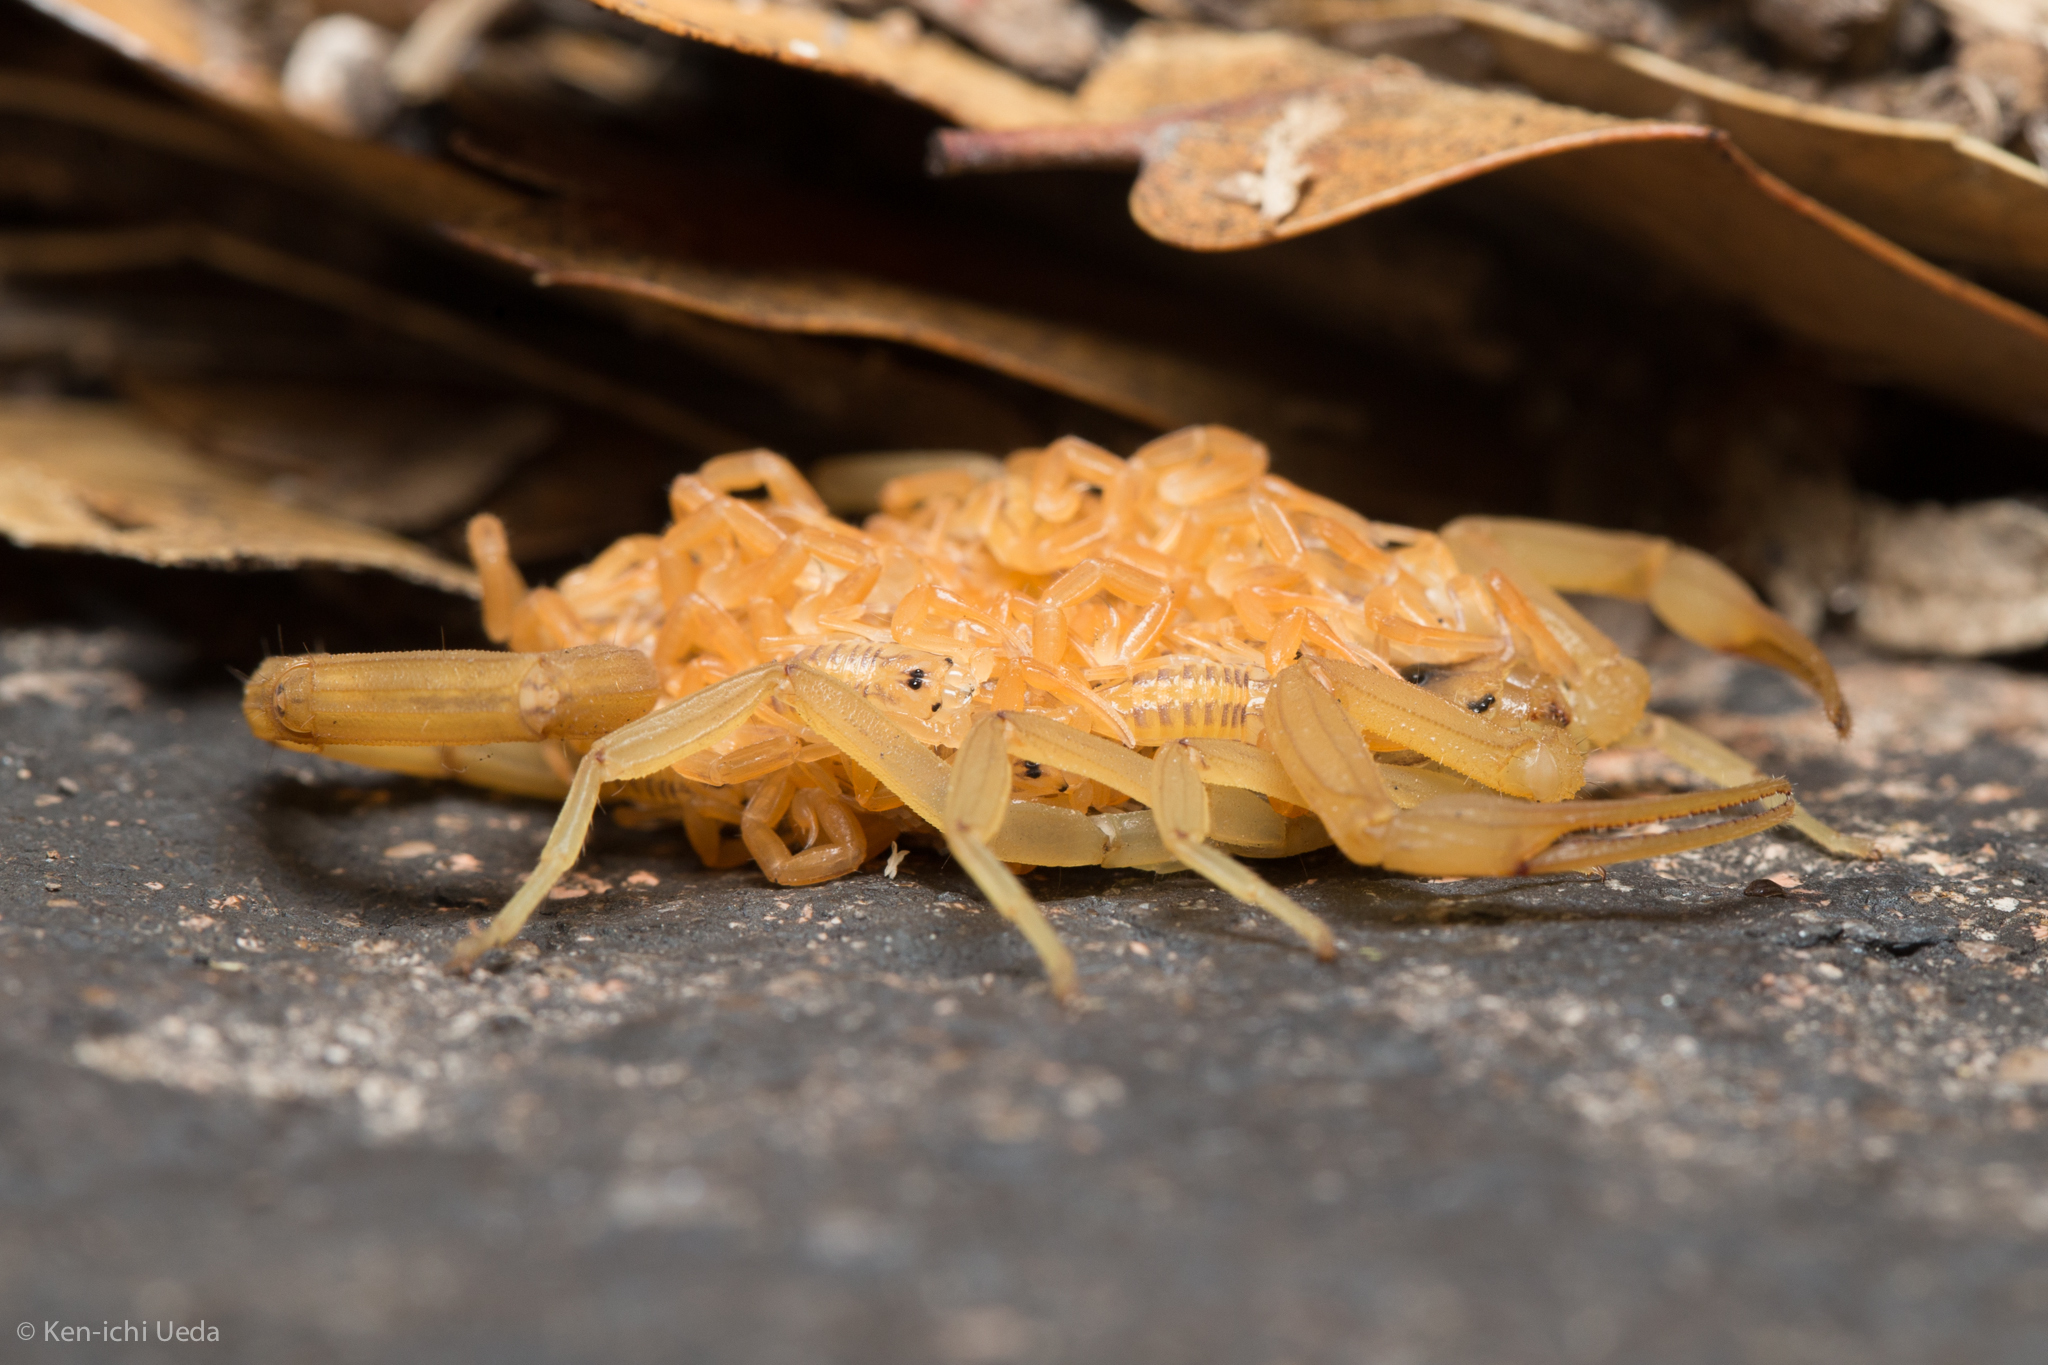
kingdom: Animalia
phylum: Arthropoda
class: Arachnida
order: Scorpiones
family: Buthidae
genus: Centruroides
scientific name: Centruroides sculpturatus
